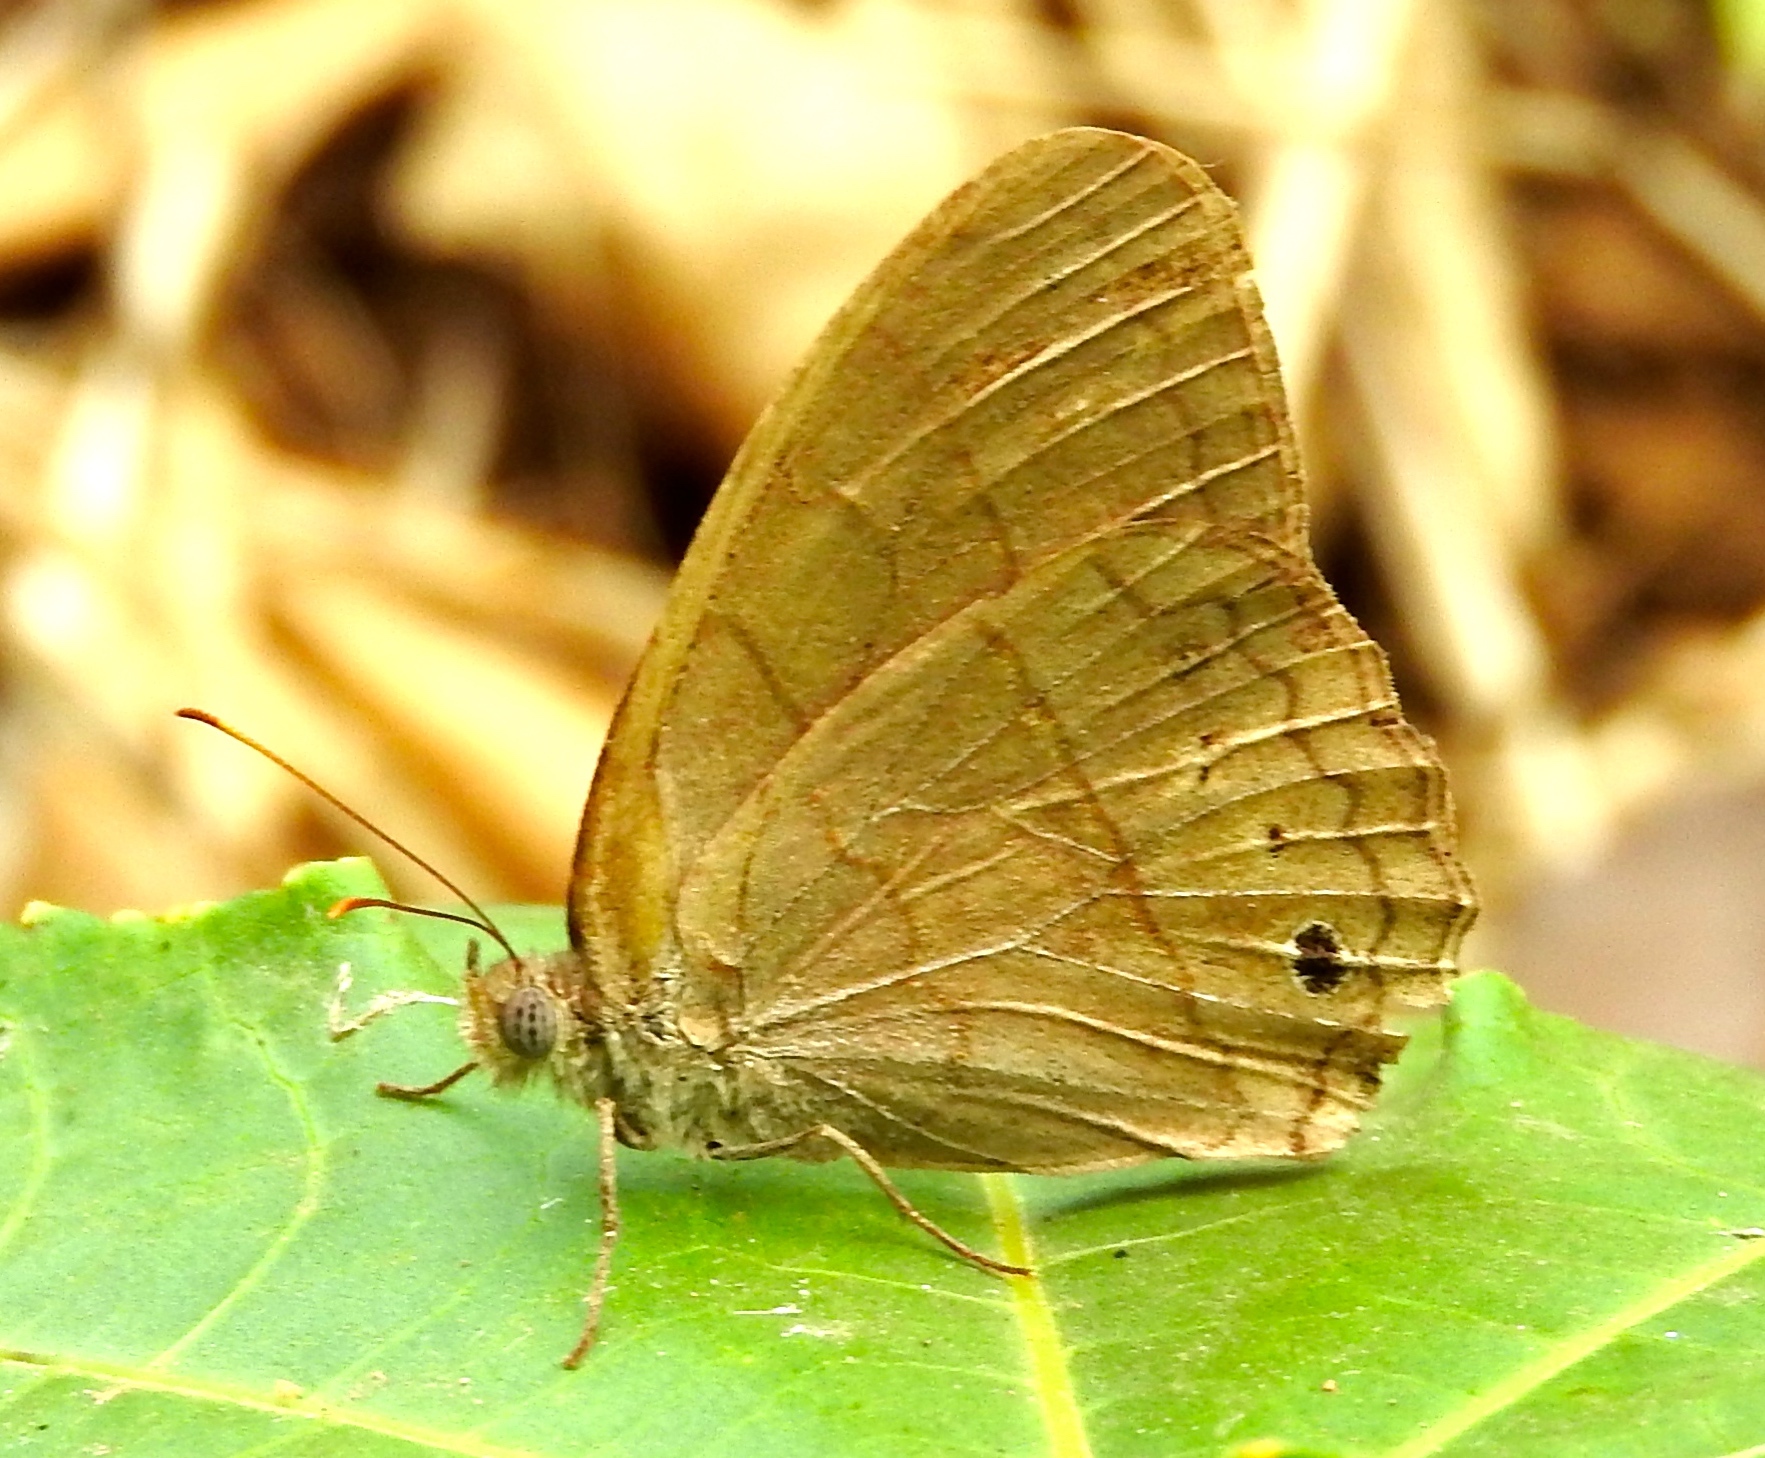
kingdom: Animalia
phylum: Arthropoda
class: Insecta
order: Lepidoptera
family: Satyridae
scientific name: Satyridae
